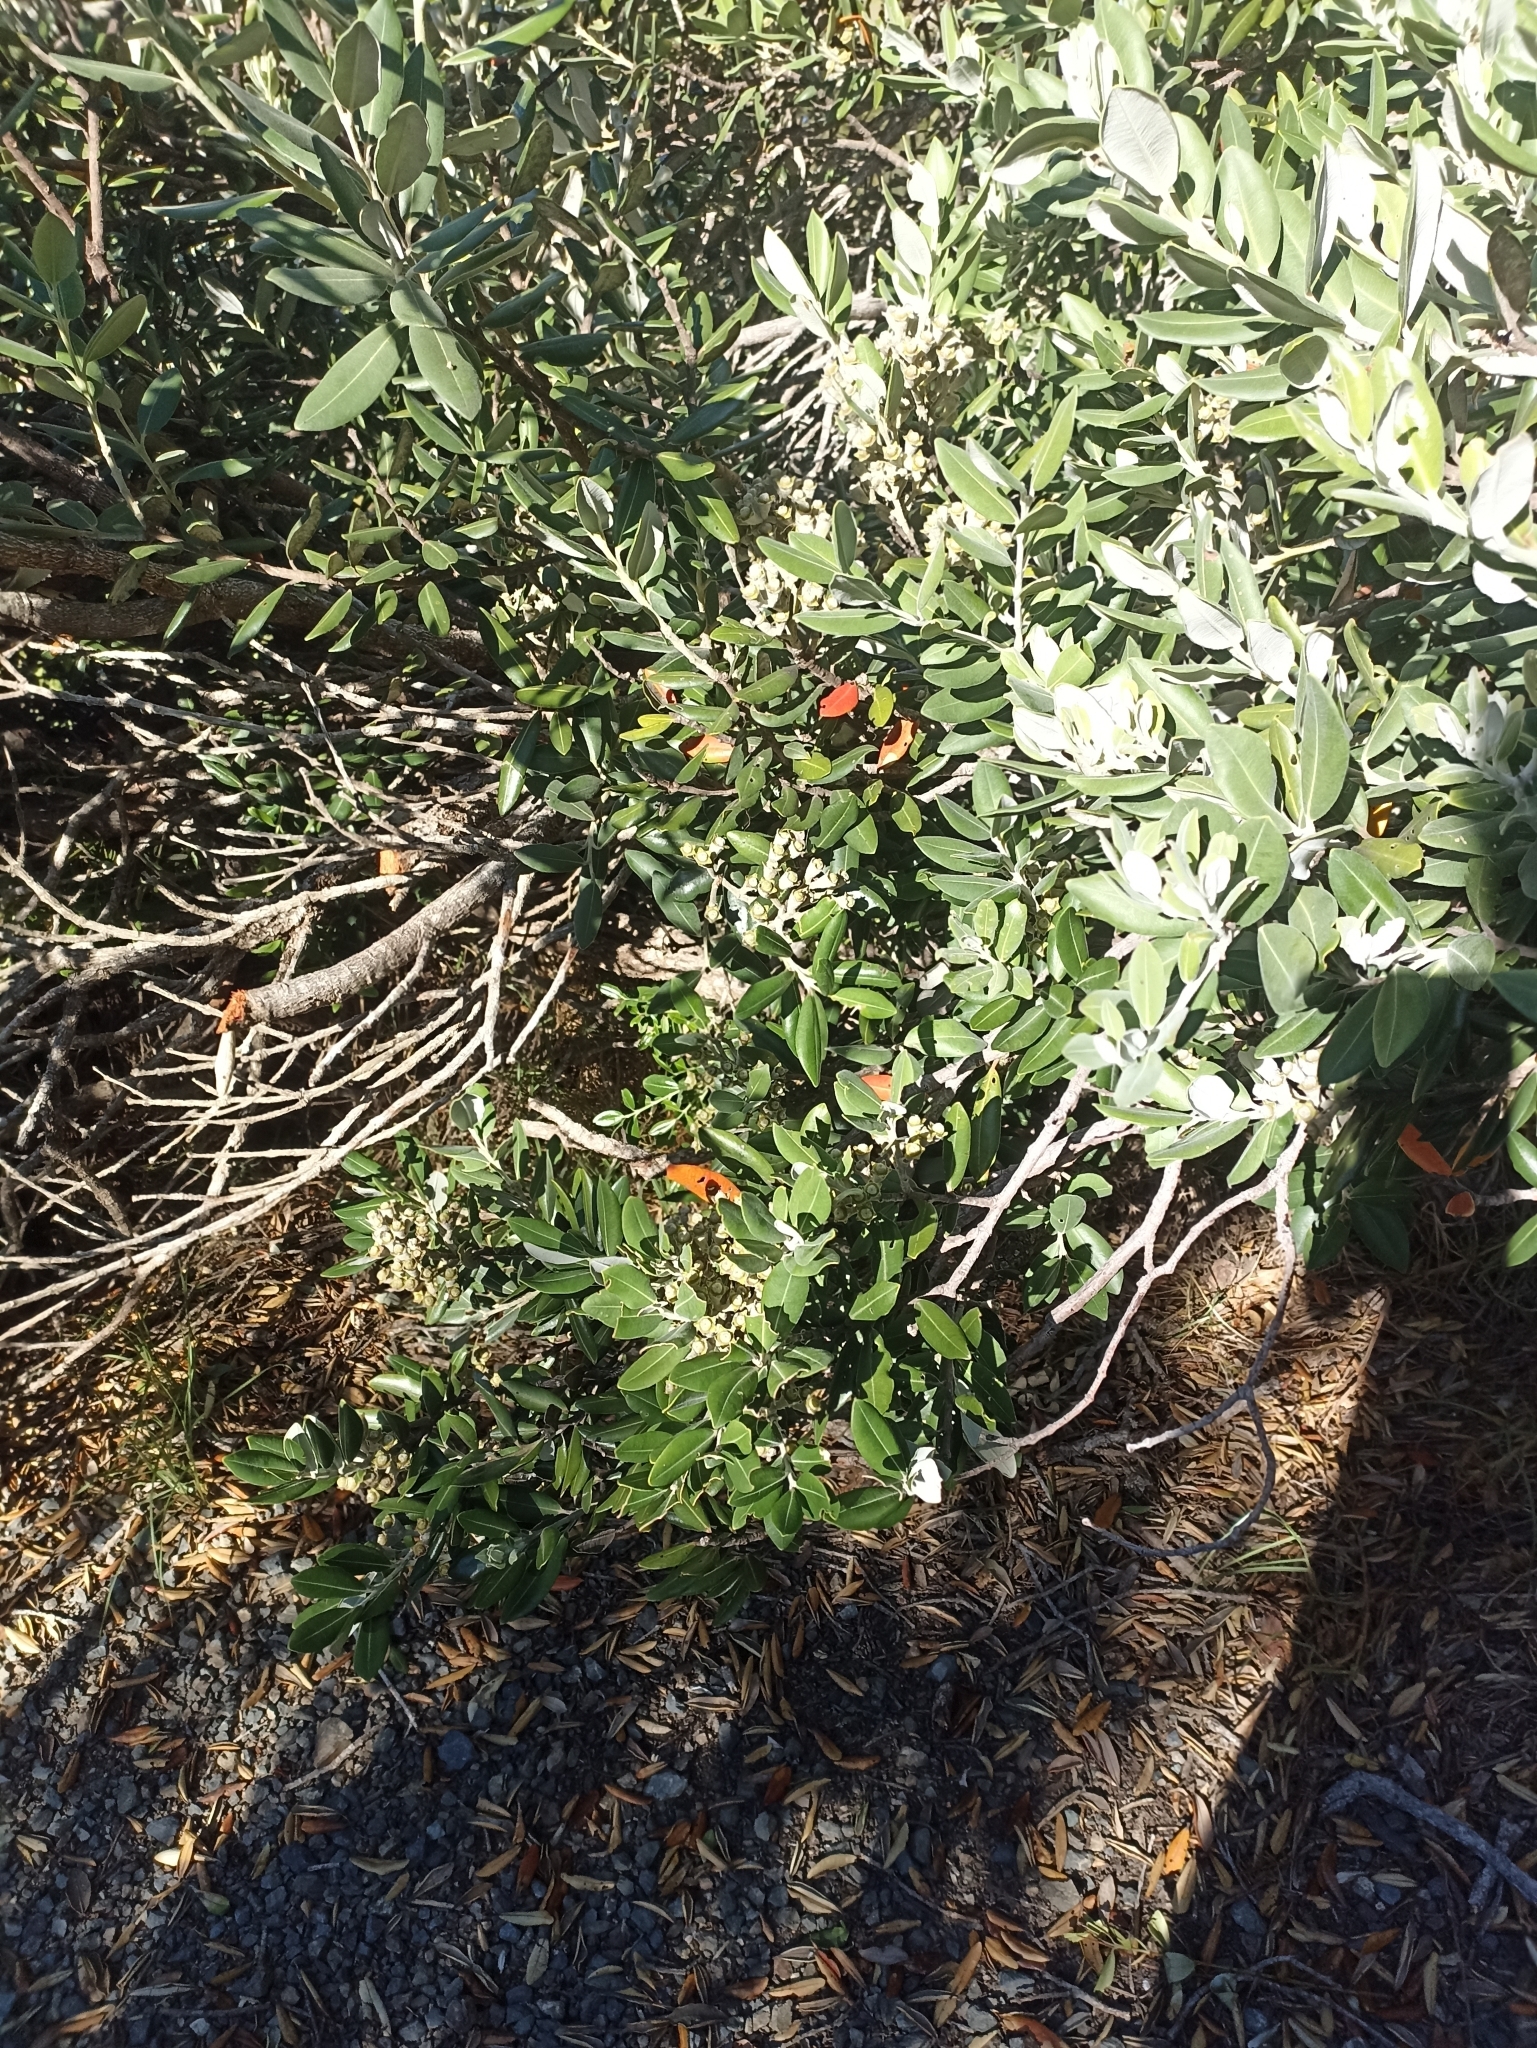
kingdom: Plantae
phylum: Tracheophyta
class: Magnoliopsida
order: Myrtales
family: Myrtaceae
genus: Metrosideros
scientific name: Metrosideros excelsa
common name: New zealand christmastree
